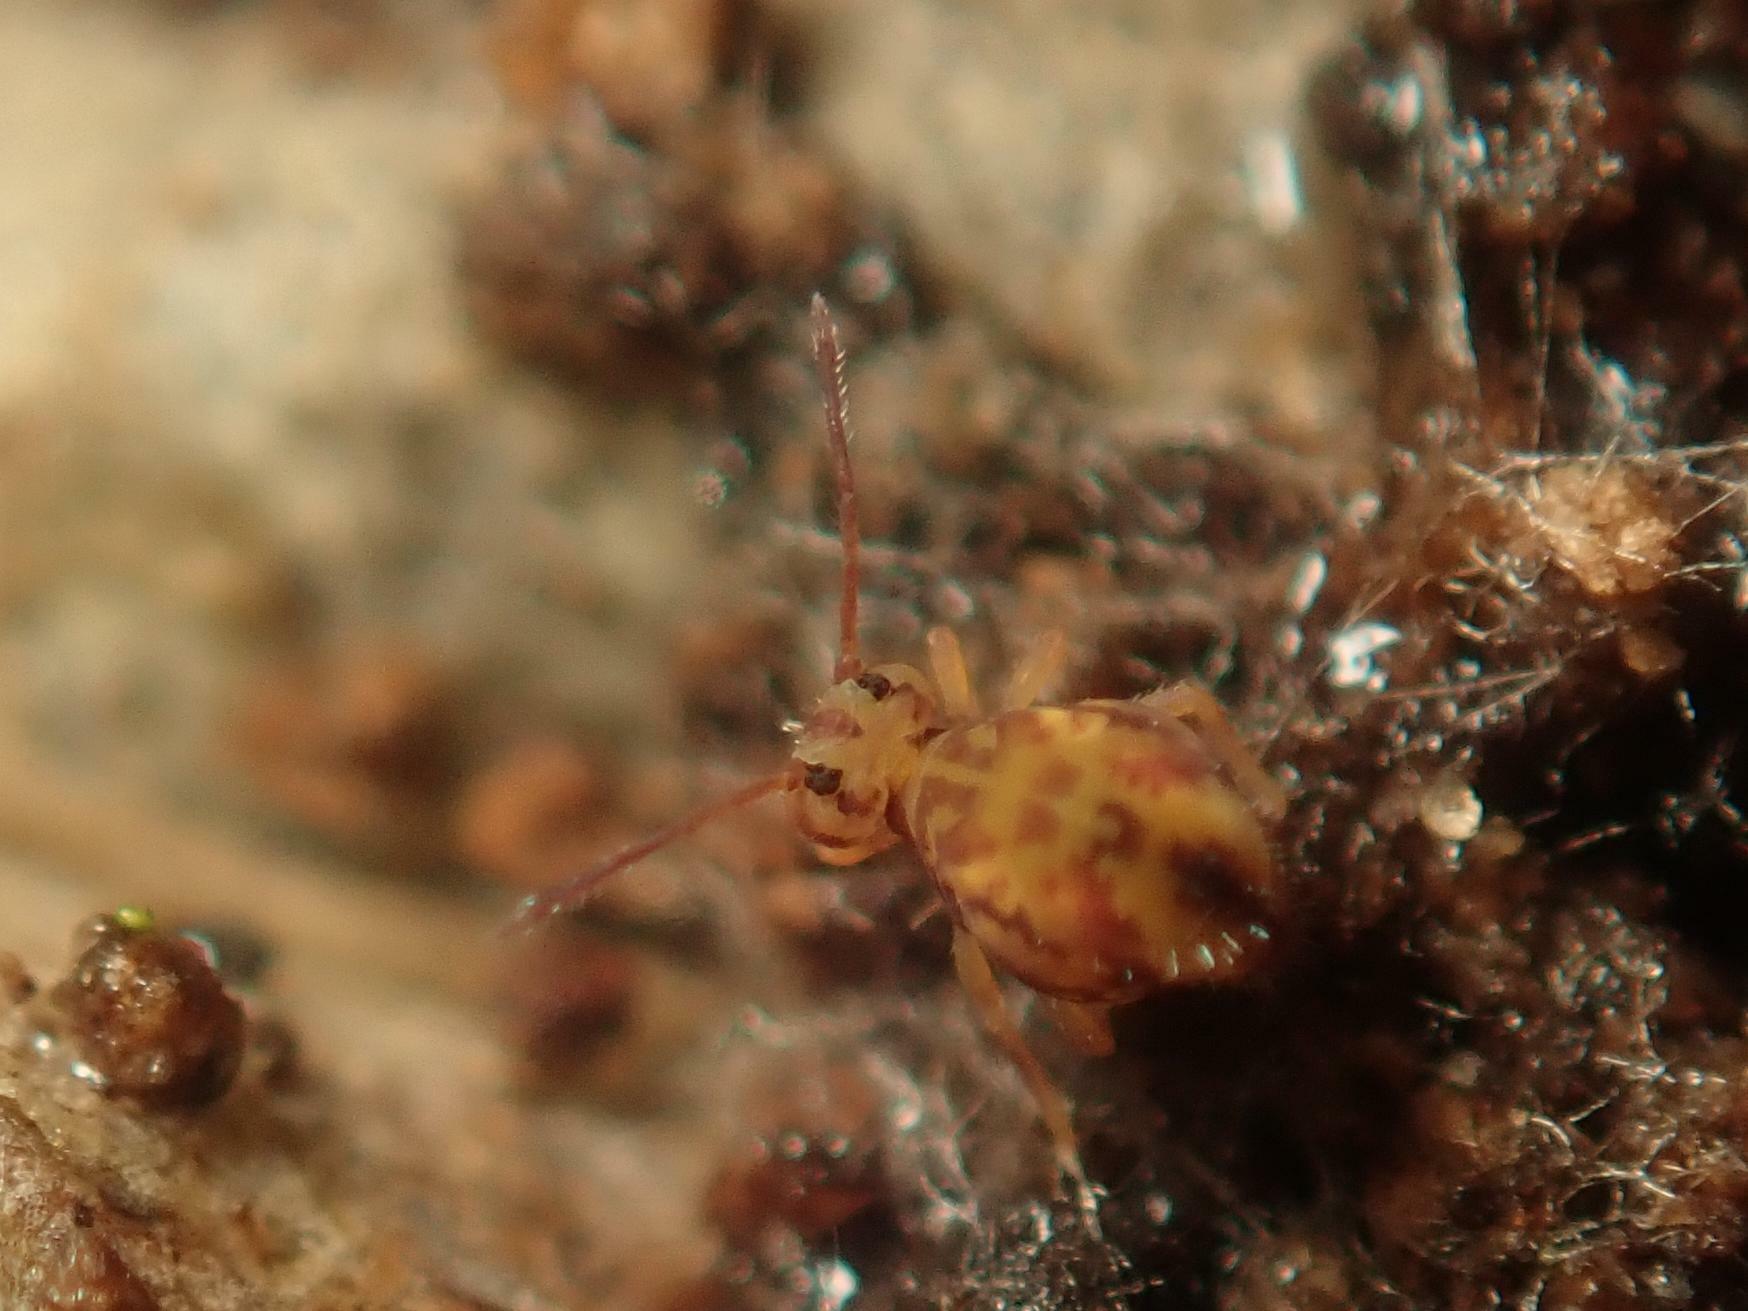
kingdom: Animalia
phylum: Arthropoda
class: Collembola
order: Symphypleona
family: Dicyrtomidae
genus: Dicyrtomina
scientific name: Dicyrtomina ornata
